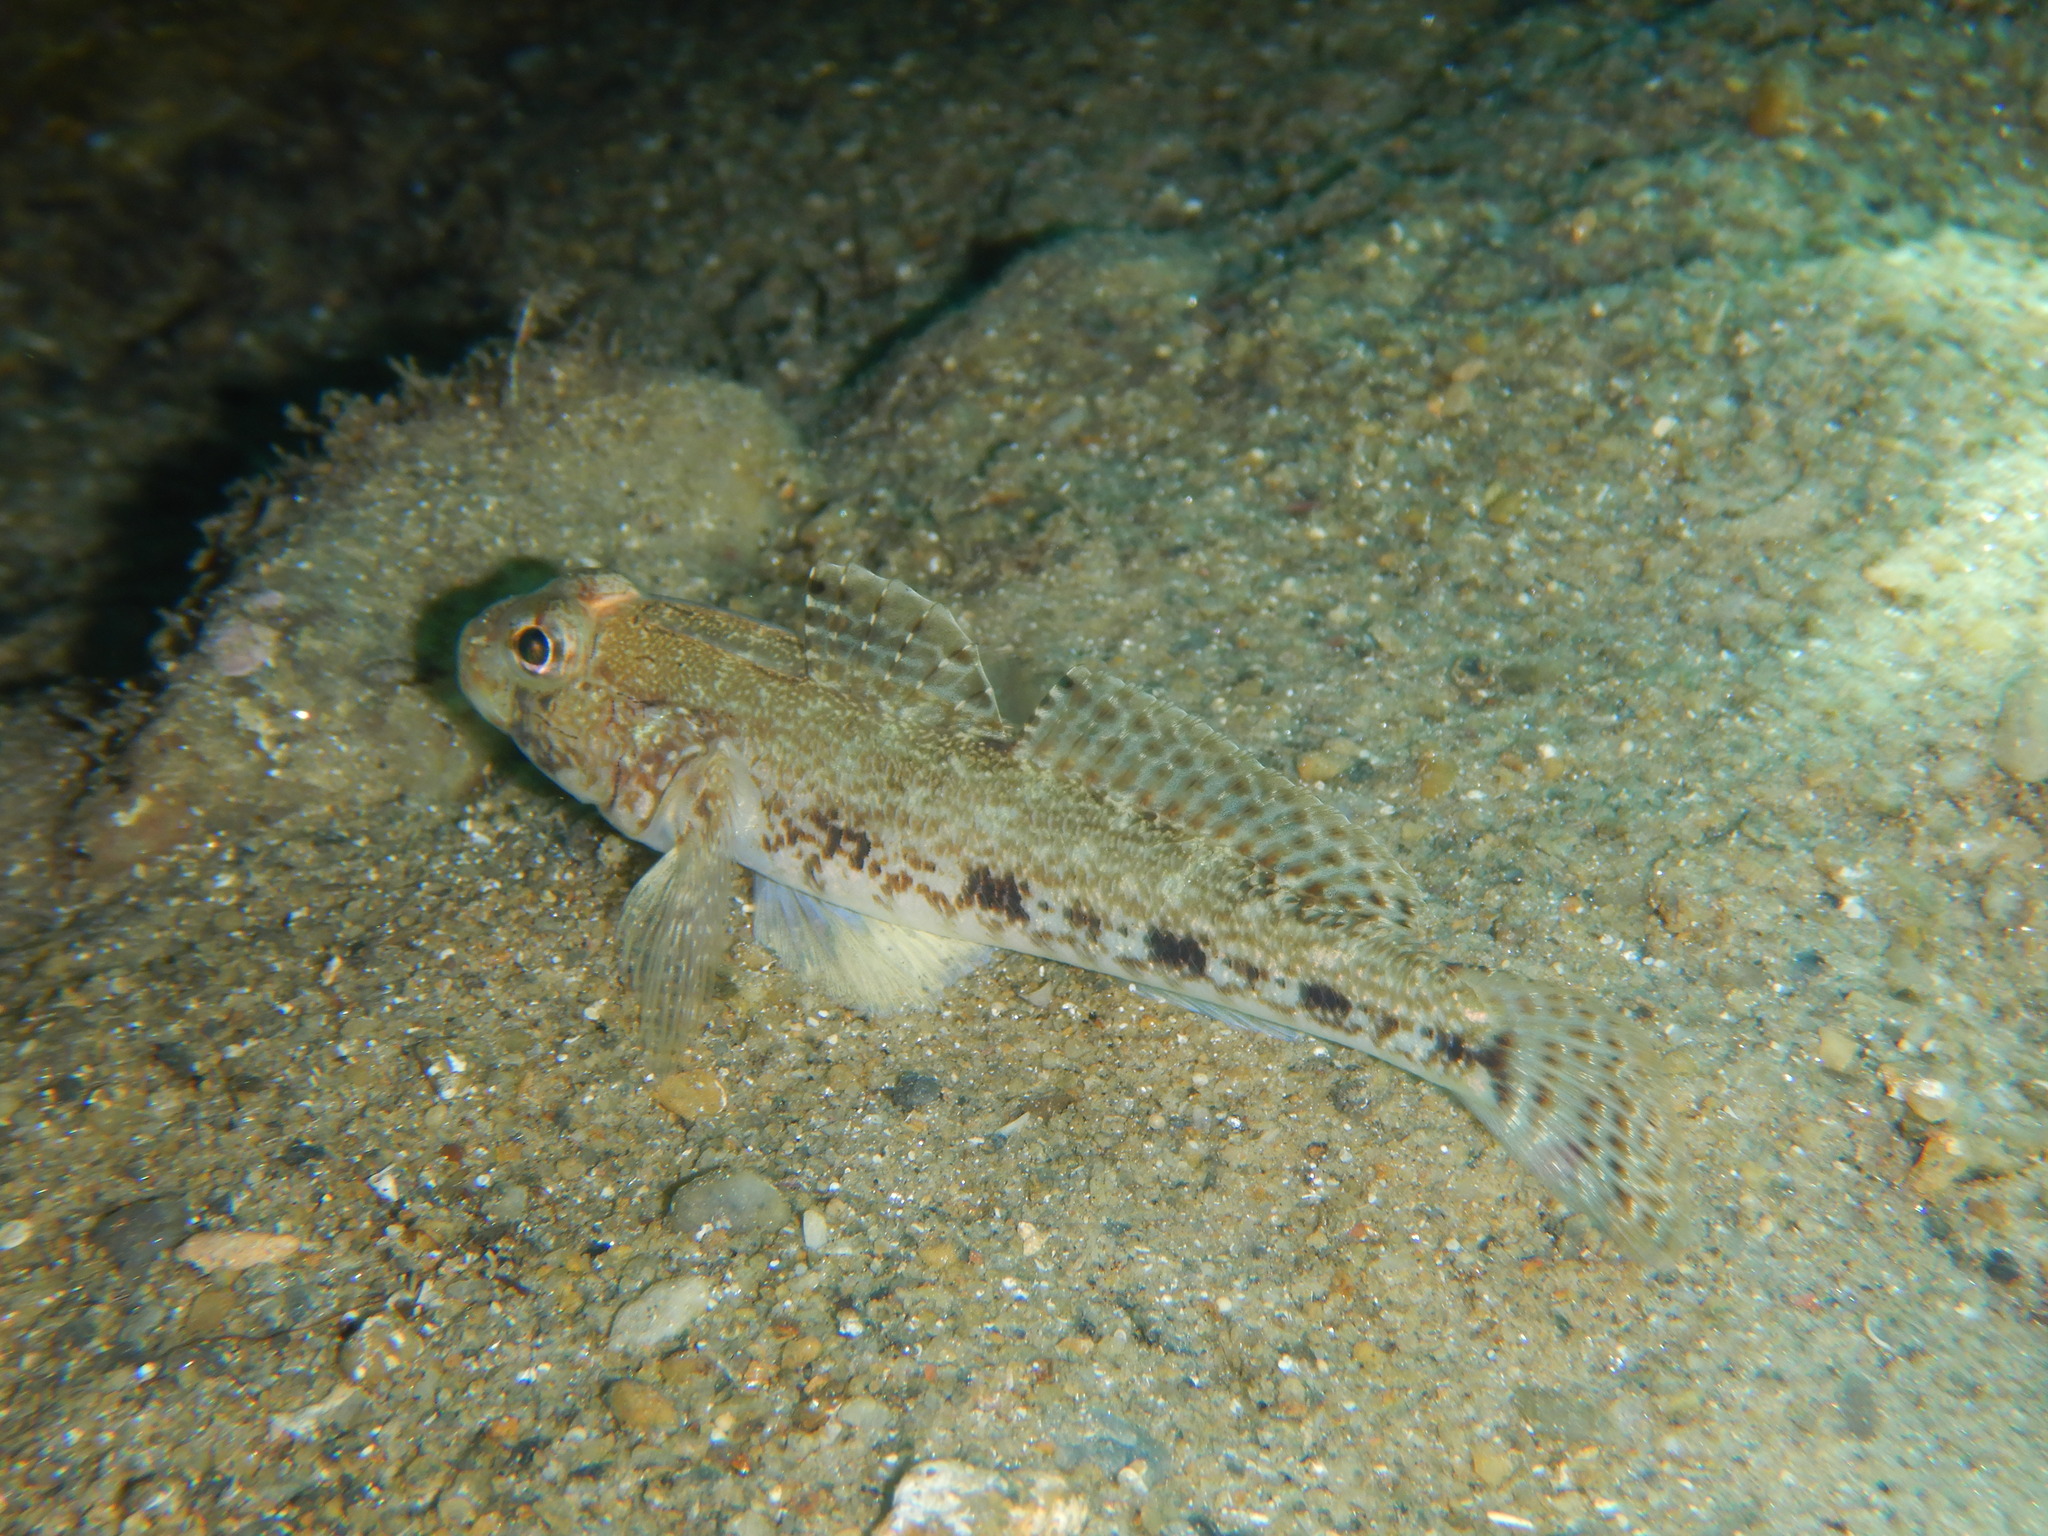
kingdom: Animalia
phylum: Chordata
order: Perciformes
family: Gobiidae
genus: Gobius
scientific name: Gobius geniporus
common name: Slender goby
